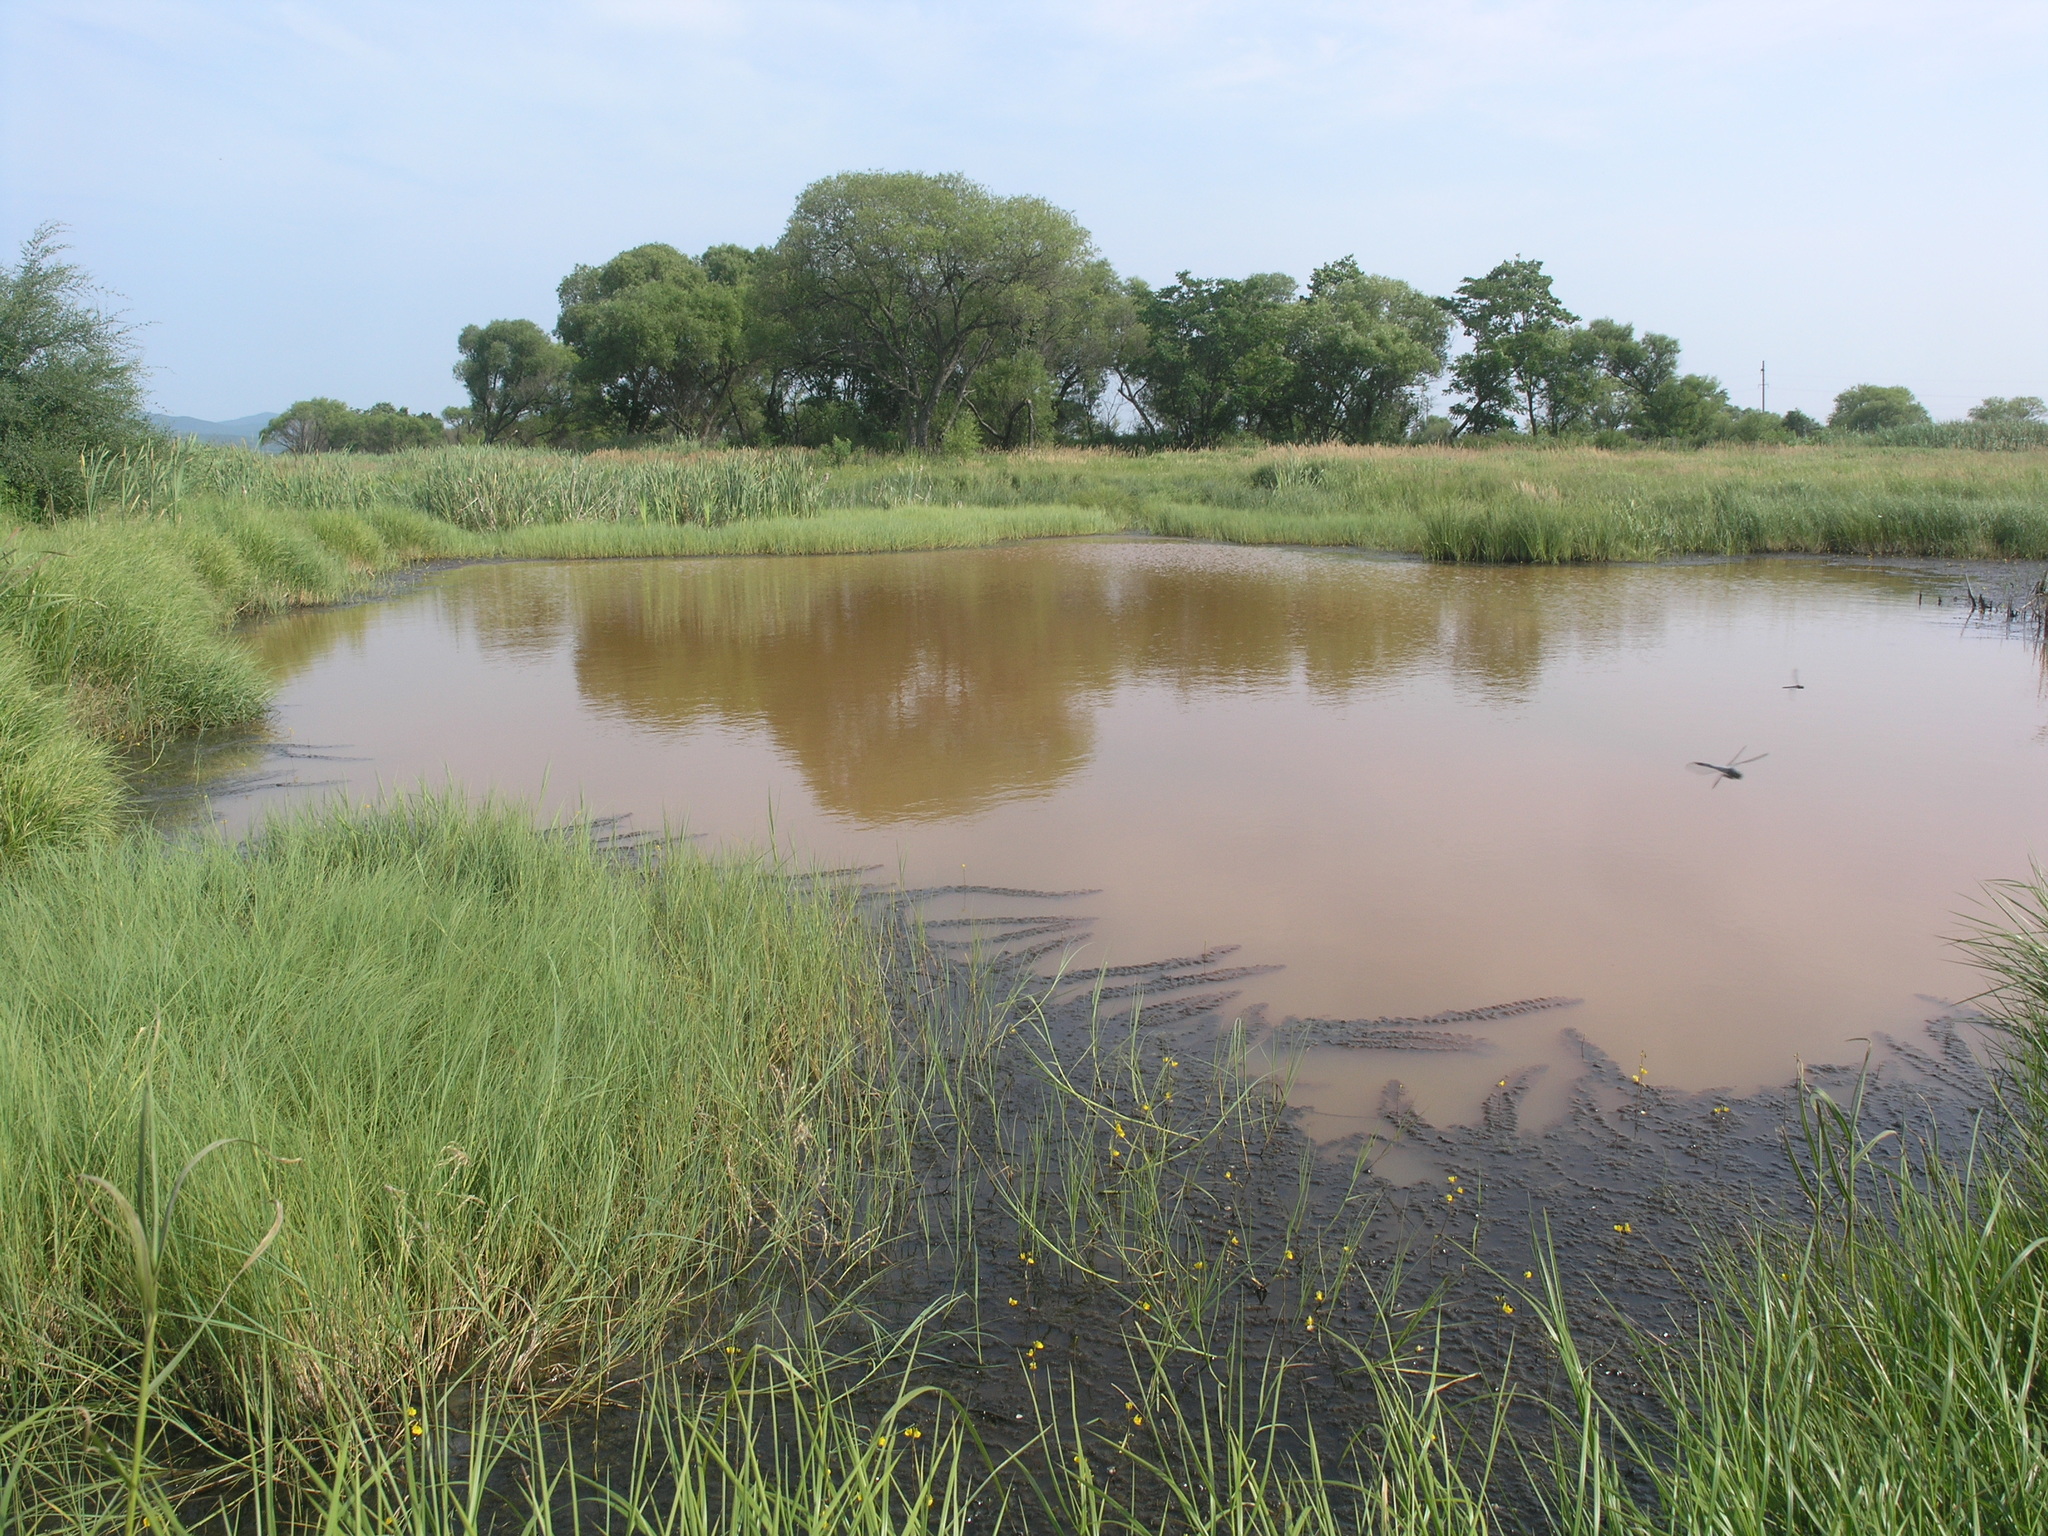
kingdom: Plantae
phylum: Tracheophyta
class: Magnoliopsida
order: Lamiales
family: Lentibulariaceae
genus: Utricularia
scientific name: Utricularia macrorhiza
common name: Common bladderwort
